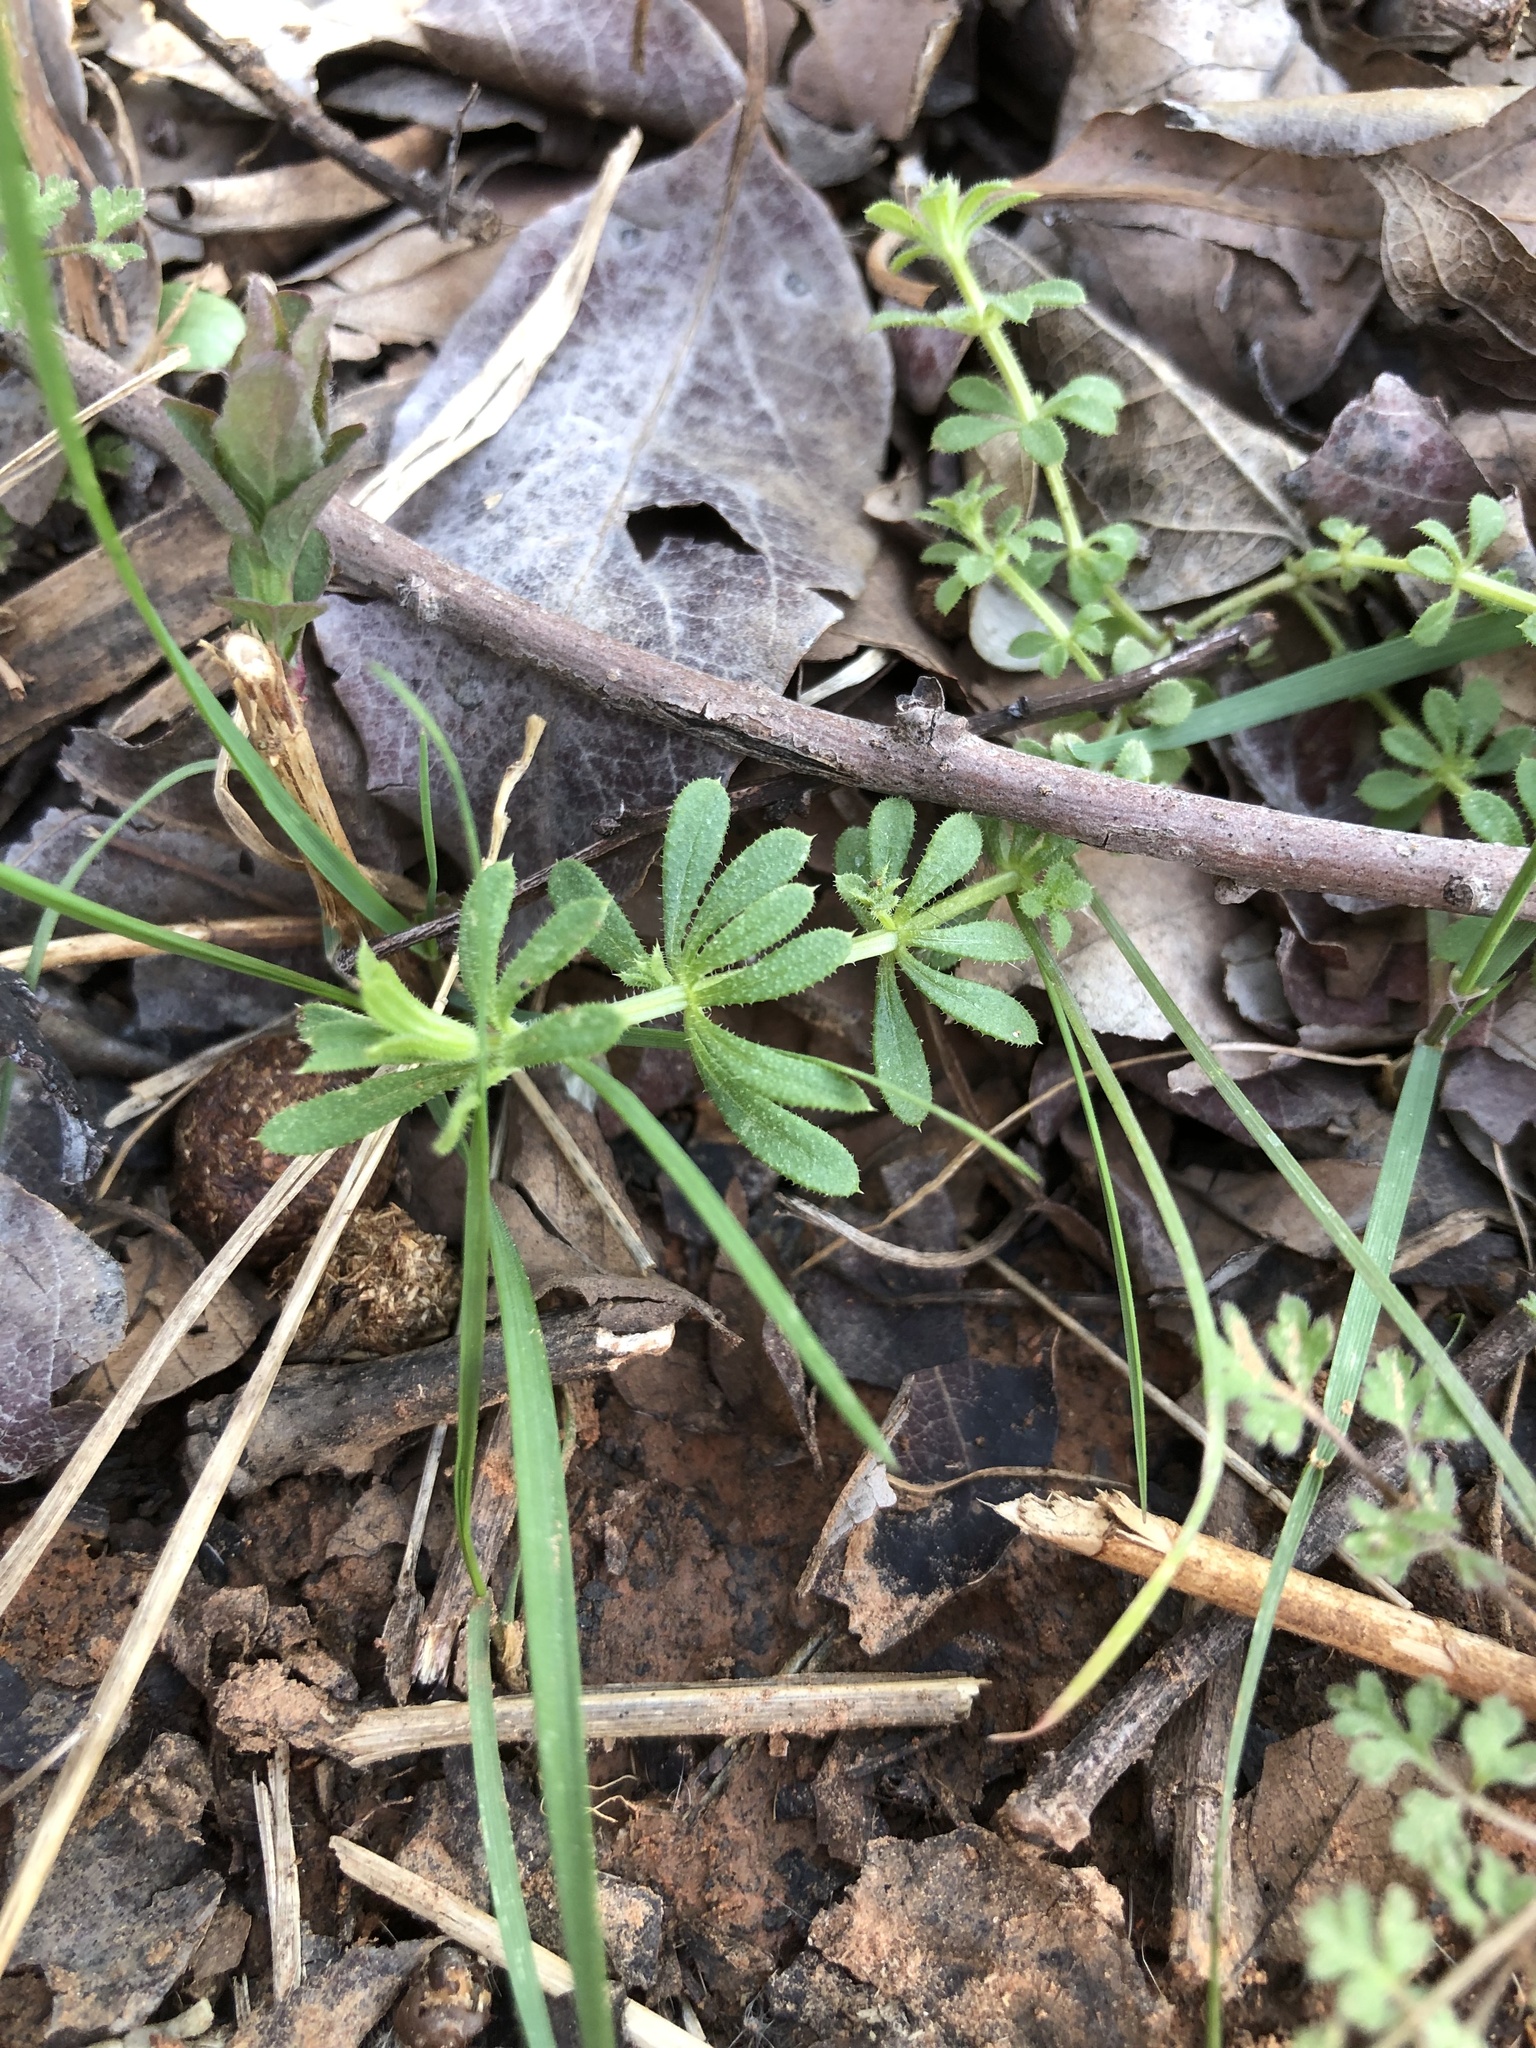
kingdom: Plantae
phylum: Tracheophyta
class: Magnoliopsida
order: Gentianales
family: Rubiaceae
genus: Galium
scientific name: Galium aparine
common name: Cleavers
